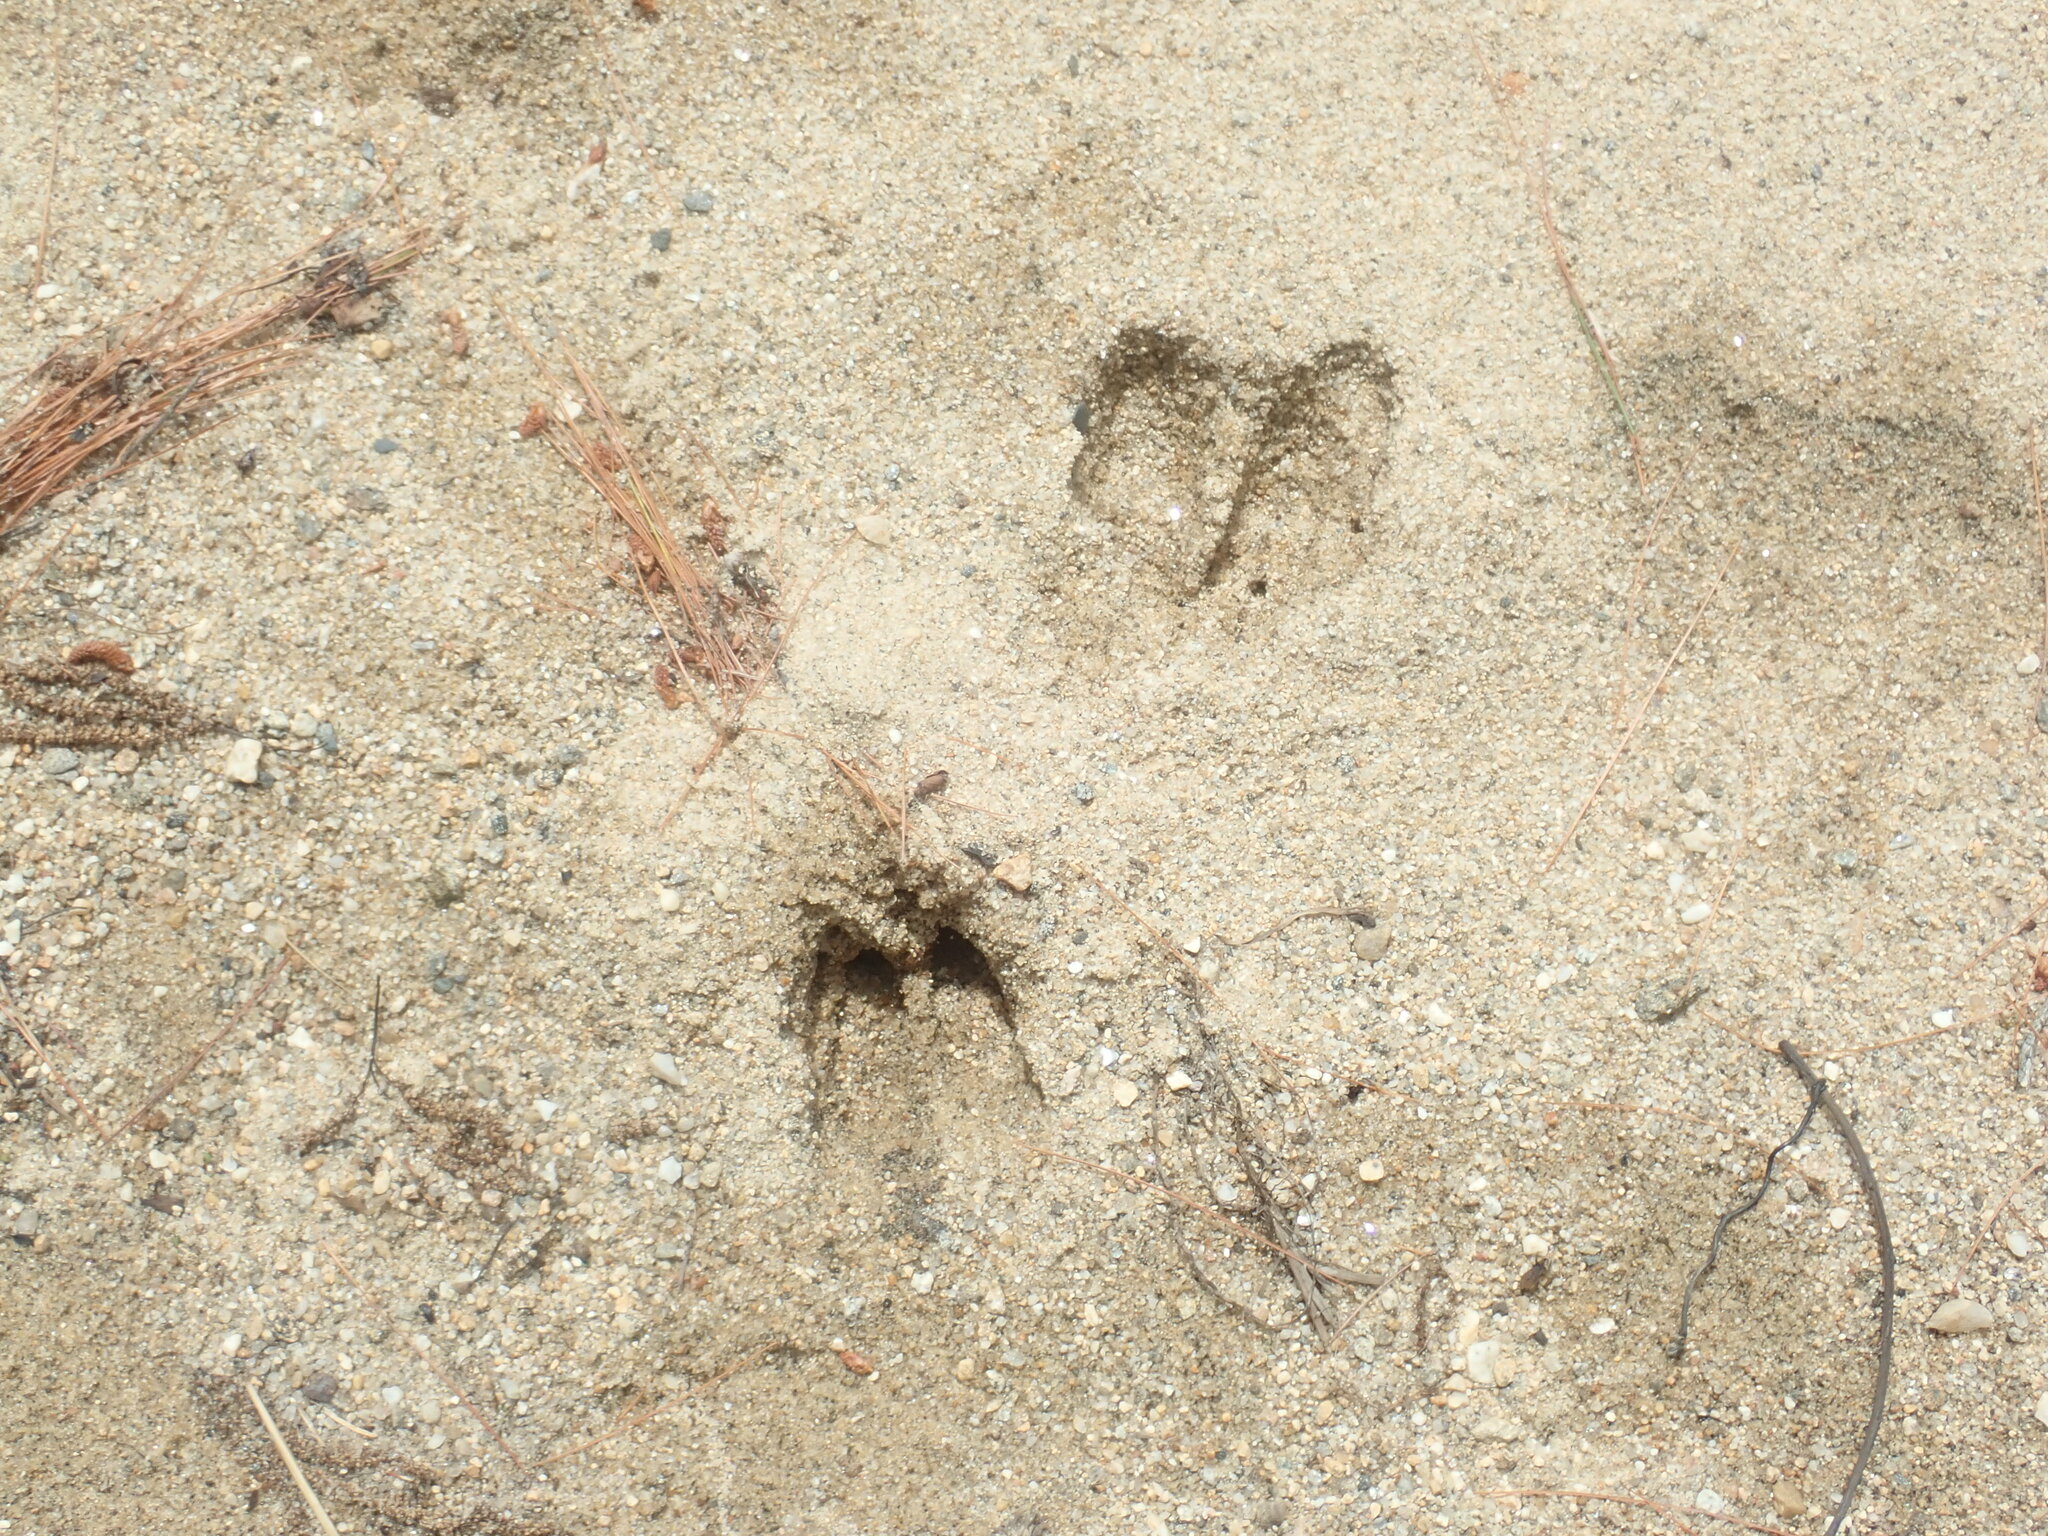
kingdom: Animalia
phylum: Chordata
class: Mammalia
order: Artiodactyla
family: Cervidae
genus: Odocoileus
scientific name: Odocoileus virginianus
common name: White-tailed deer
